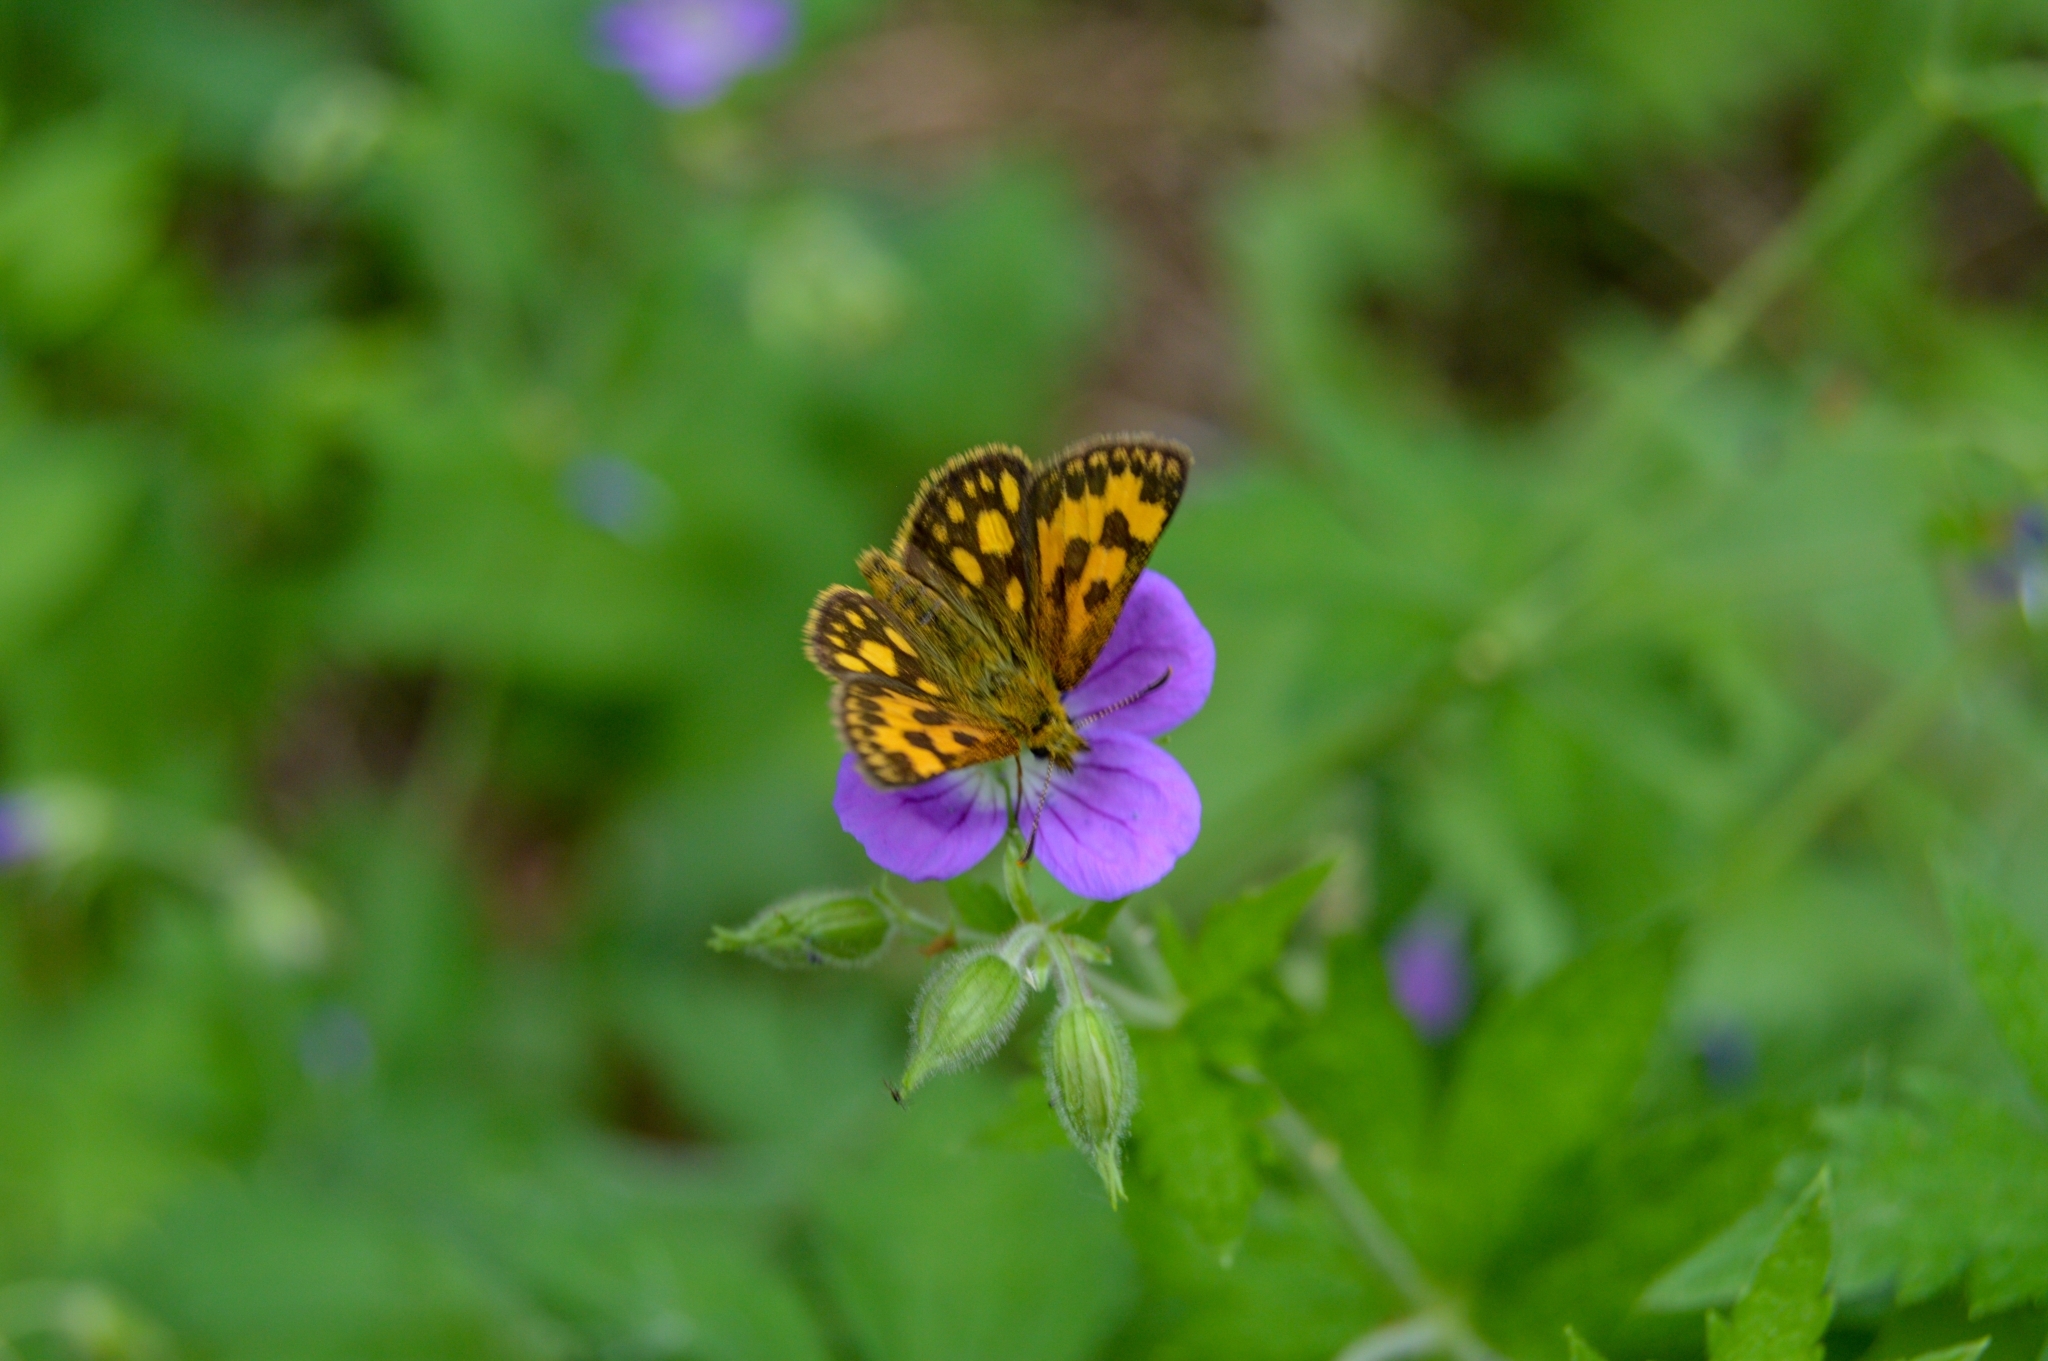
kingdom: Animalia
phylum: Arthropoda
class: Insecta
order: Lepidoptera
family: Hesperiidae
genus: Carterocephalus
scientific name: Carterocephalus silvicola
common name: Northern chequered skipper
